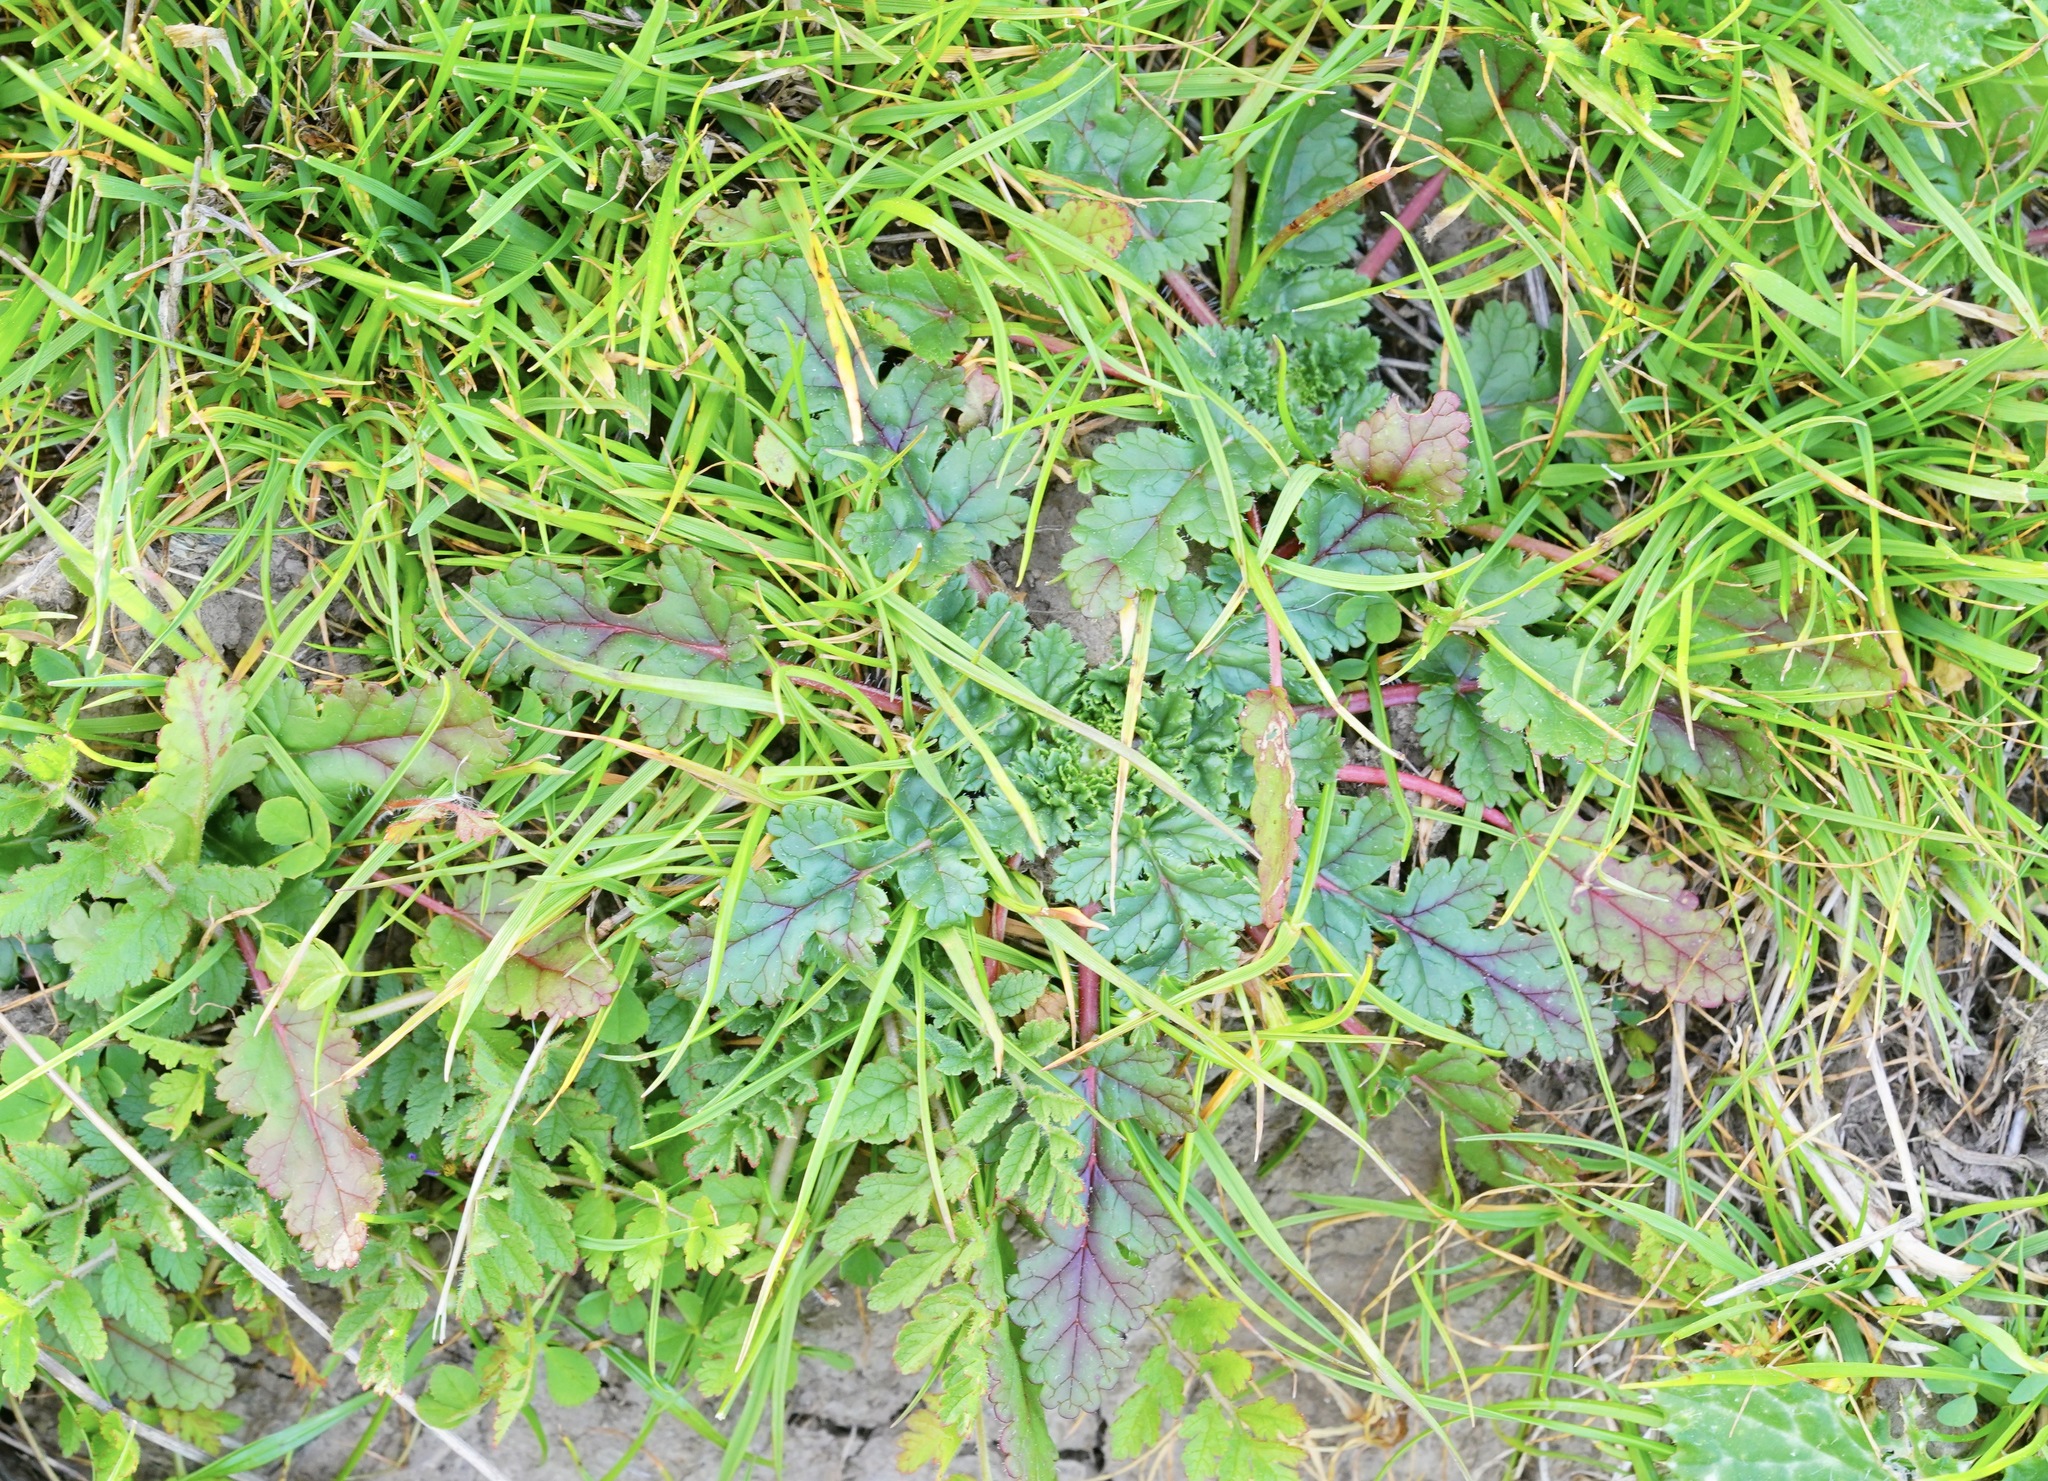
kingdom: Plantae
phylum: Tracheophyta
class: Magnoliopsida
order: Geraniales
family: Geraniaceae
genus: Erodium
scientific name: Erodium
